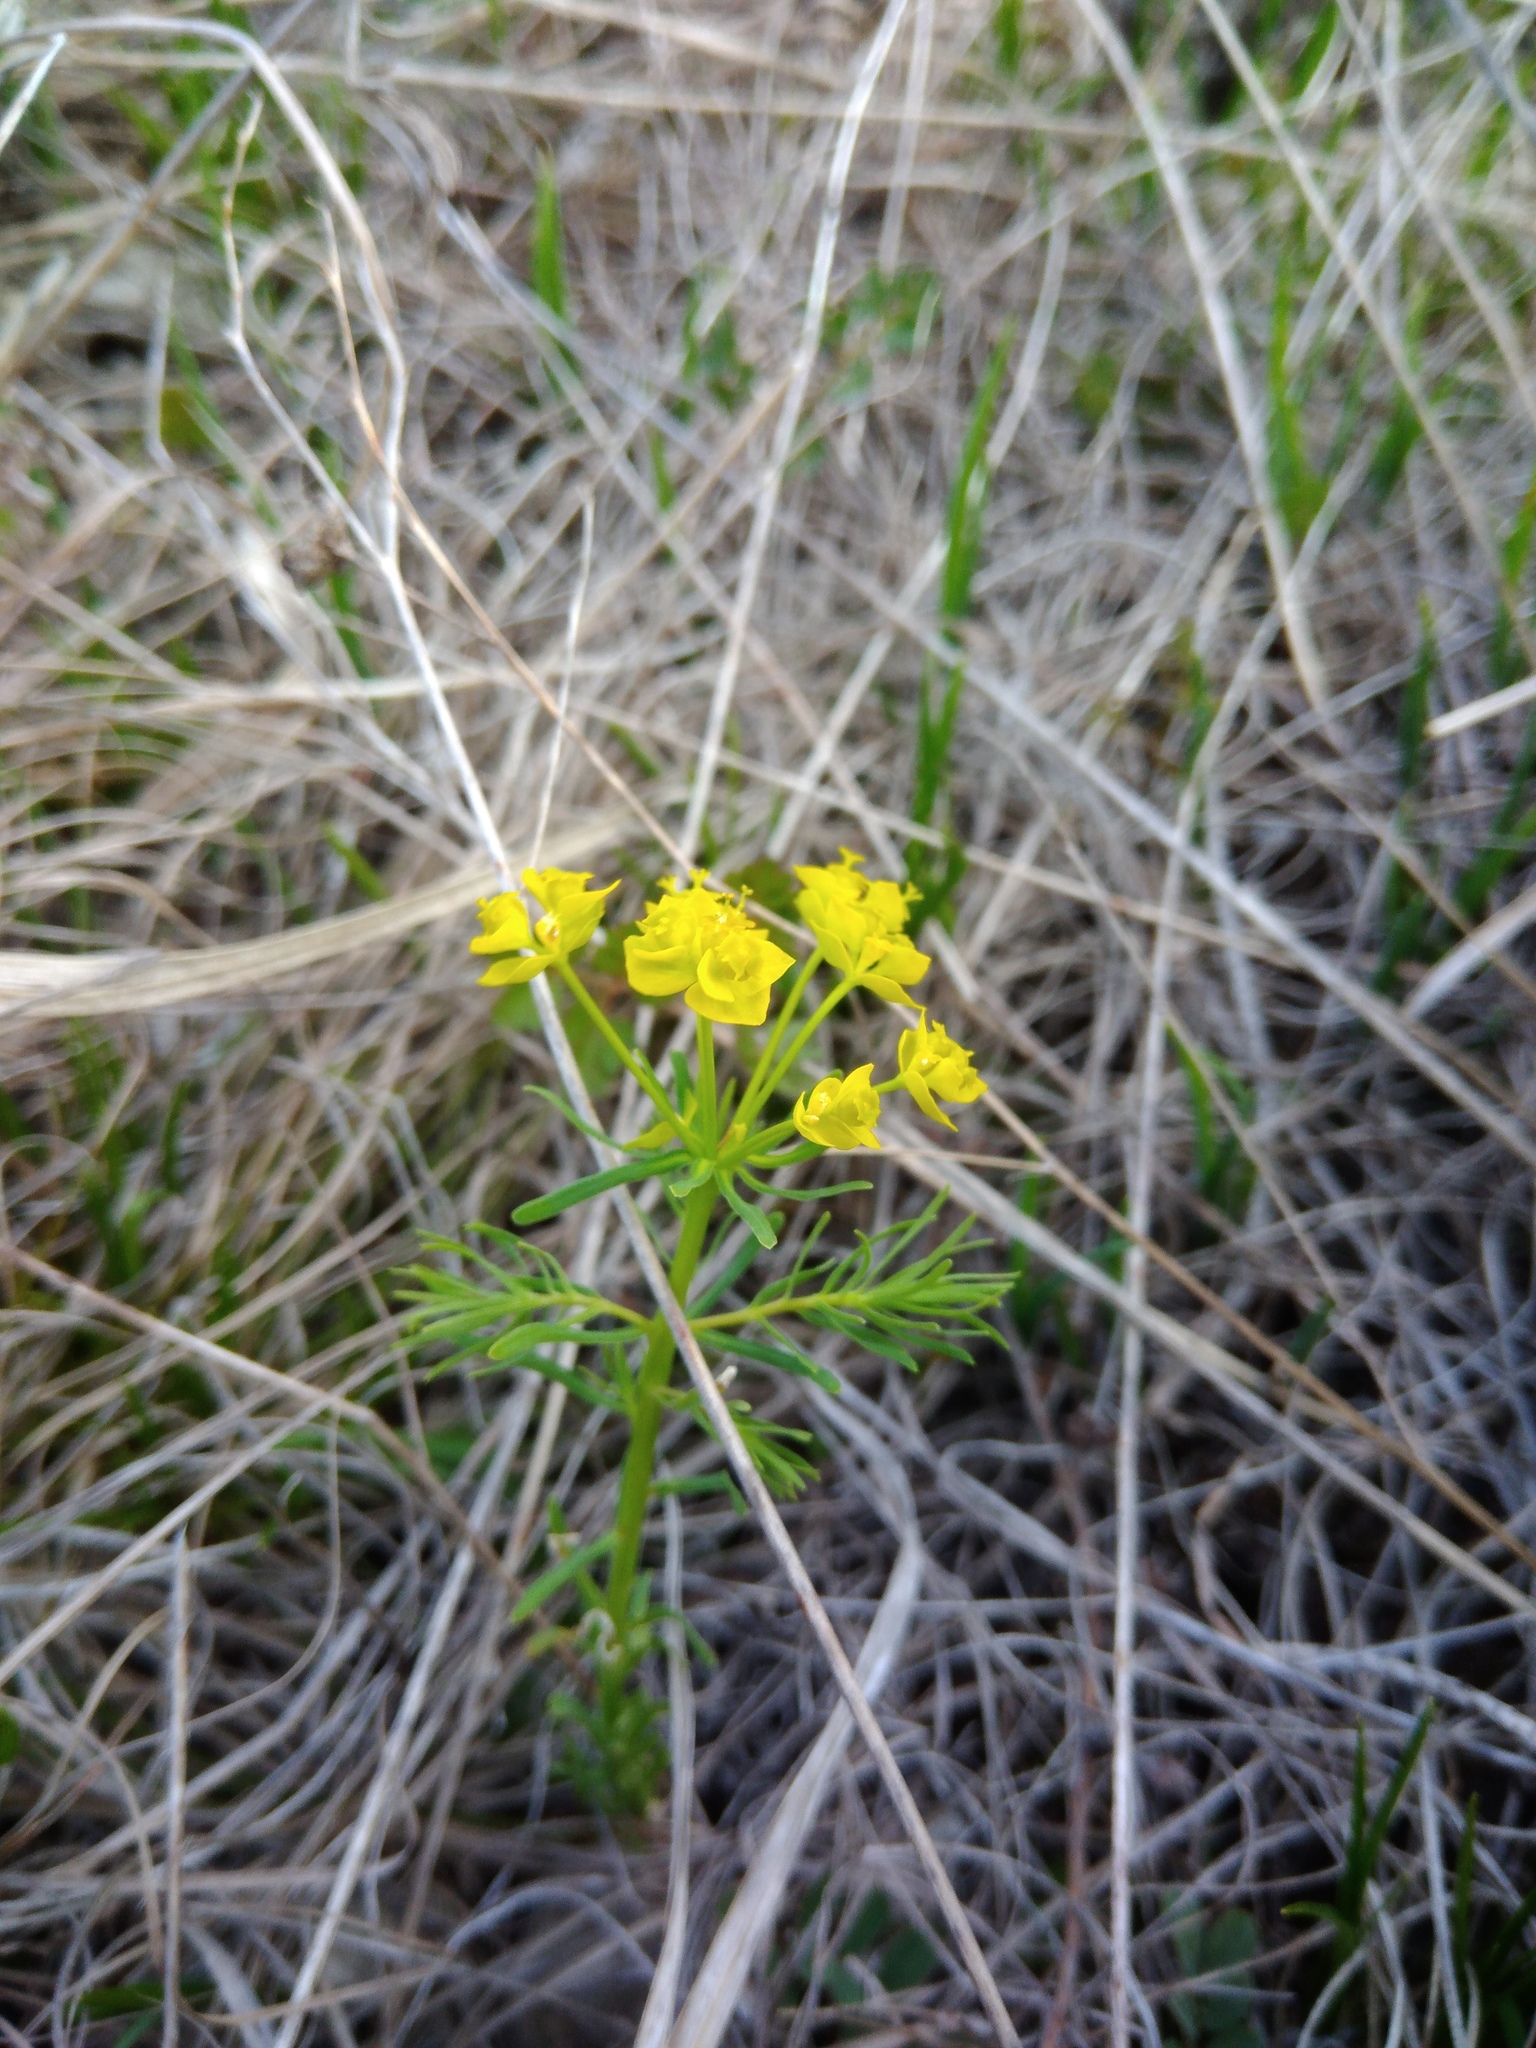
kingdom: Plantae
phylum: Tracheophyta
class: Magnoliopsida
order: Malpighiales
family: Euphorbiaceae
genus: Euphorbia
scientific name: Euphorbia cyparissias
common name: Cypress spurge
